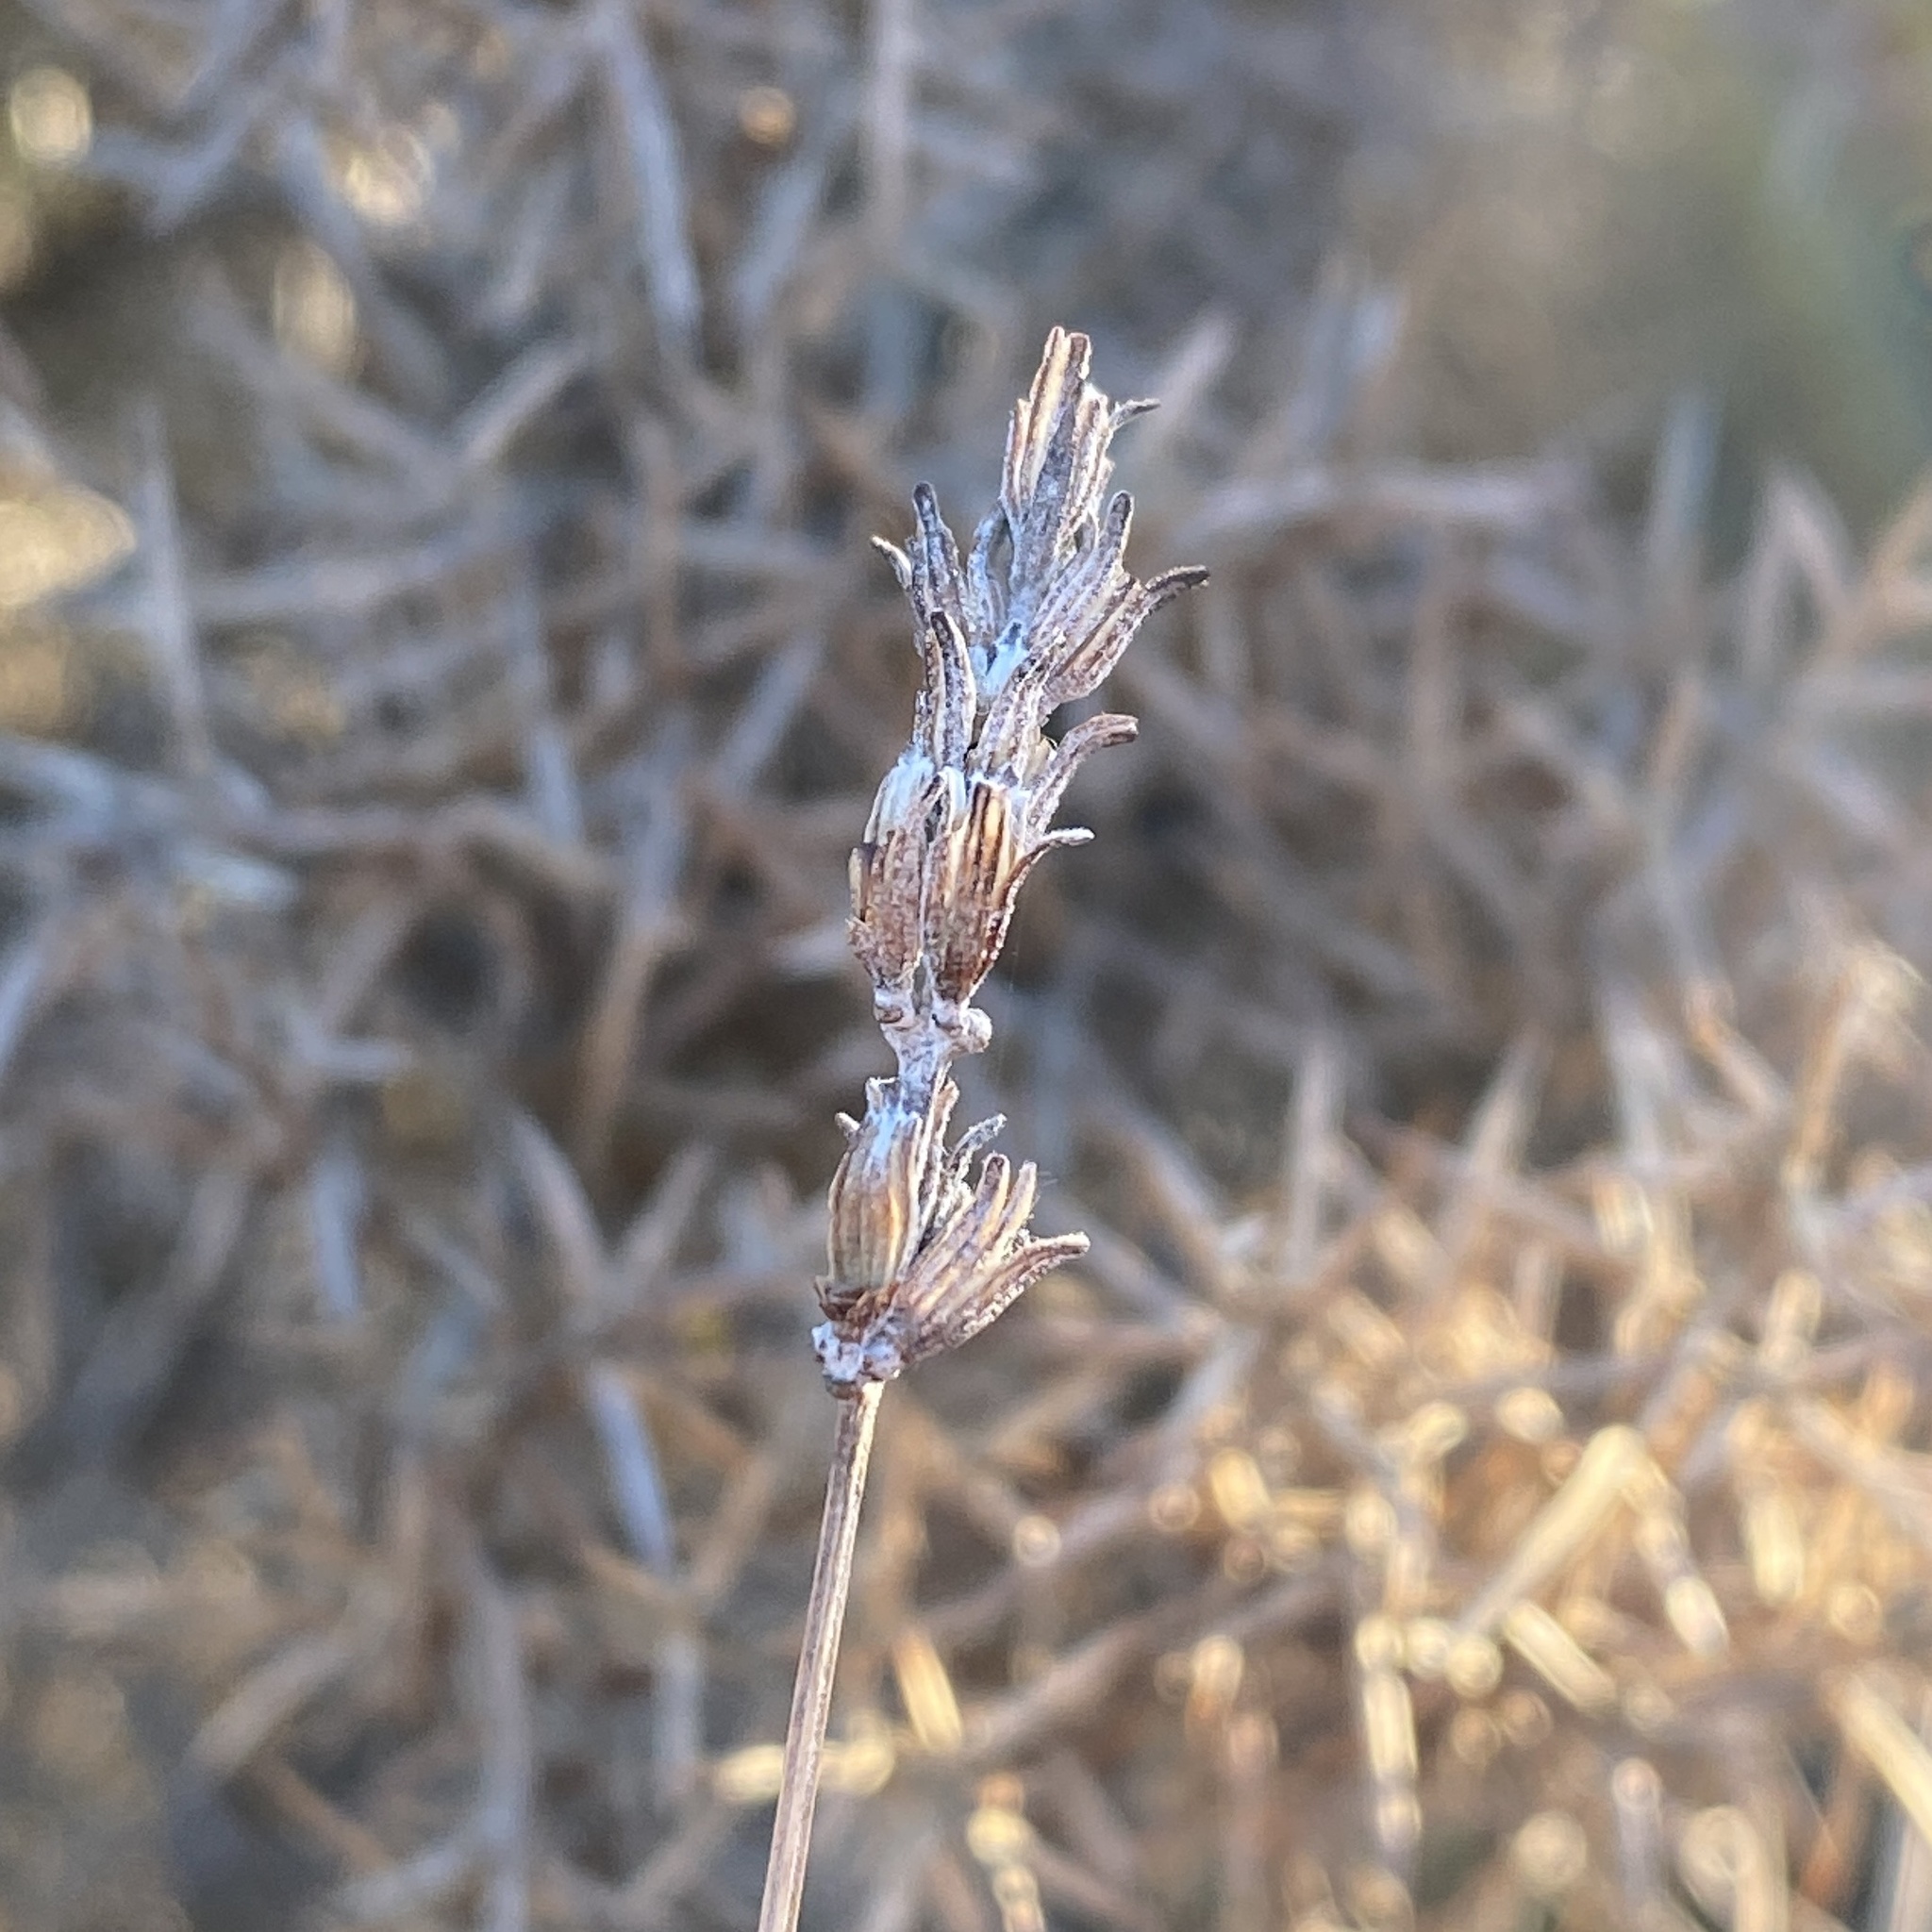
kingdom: Plantae
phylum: Tracheophyta
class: Magnoliopsida
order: Lamiales
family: Lamiaceae
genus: Lavandula
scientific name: Lavandula latifolia
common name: Spike lavendar
